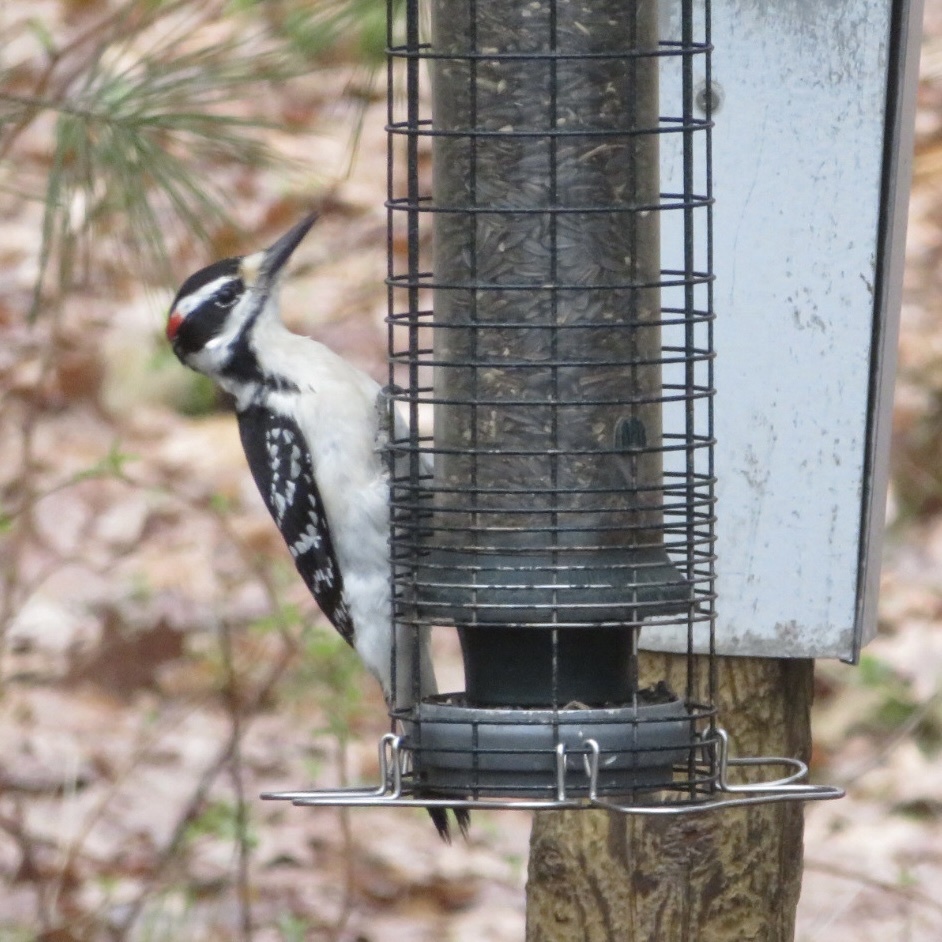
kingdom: Animalia
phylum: Chordata
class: Aves
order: Piciformes
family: Picidae
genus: Leuconotopicus
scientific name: Leuconotopicus villosus
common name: Hairy woodpecker
